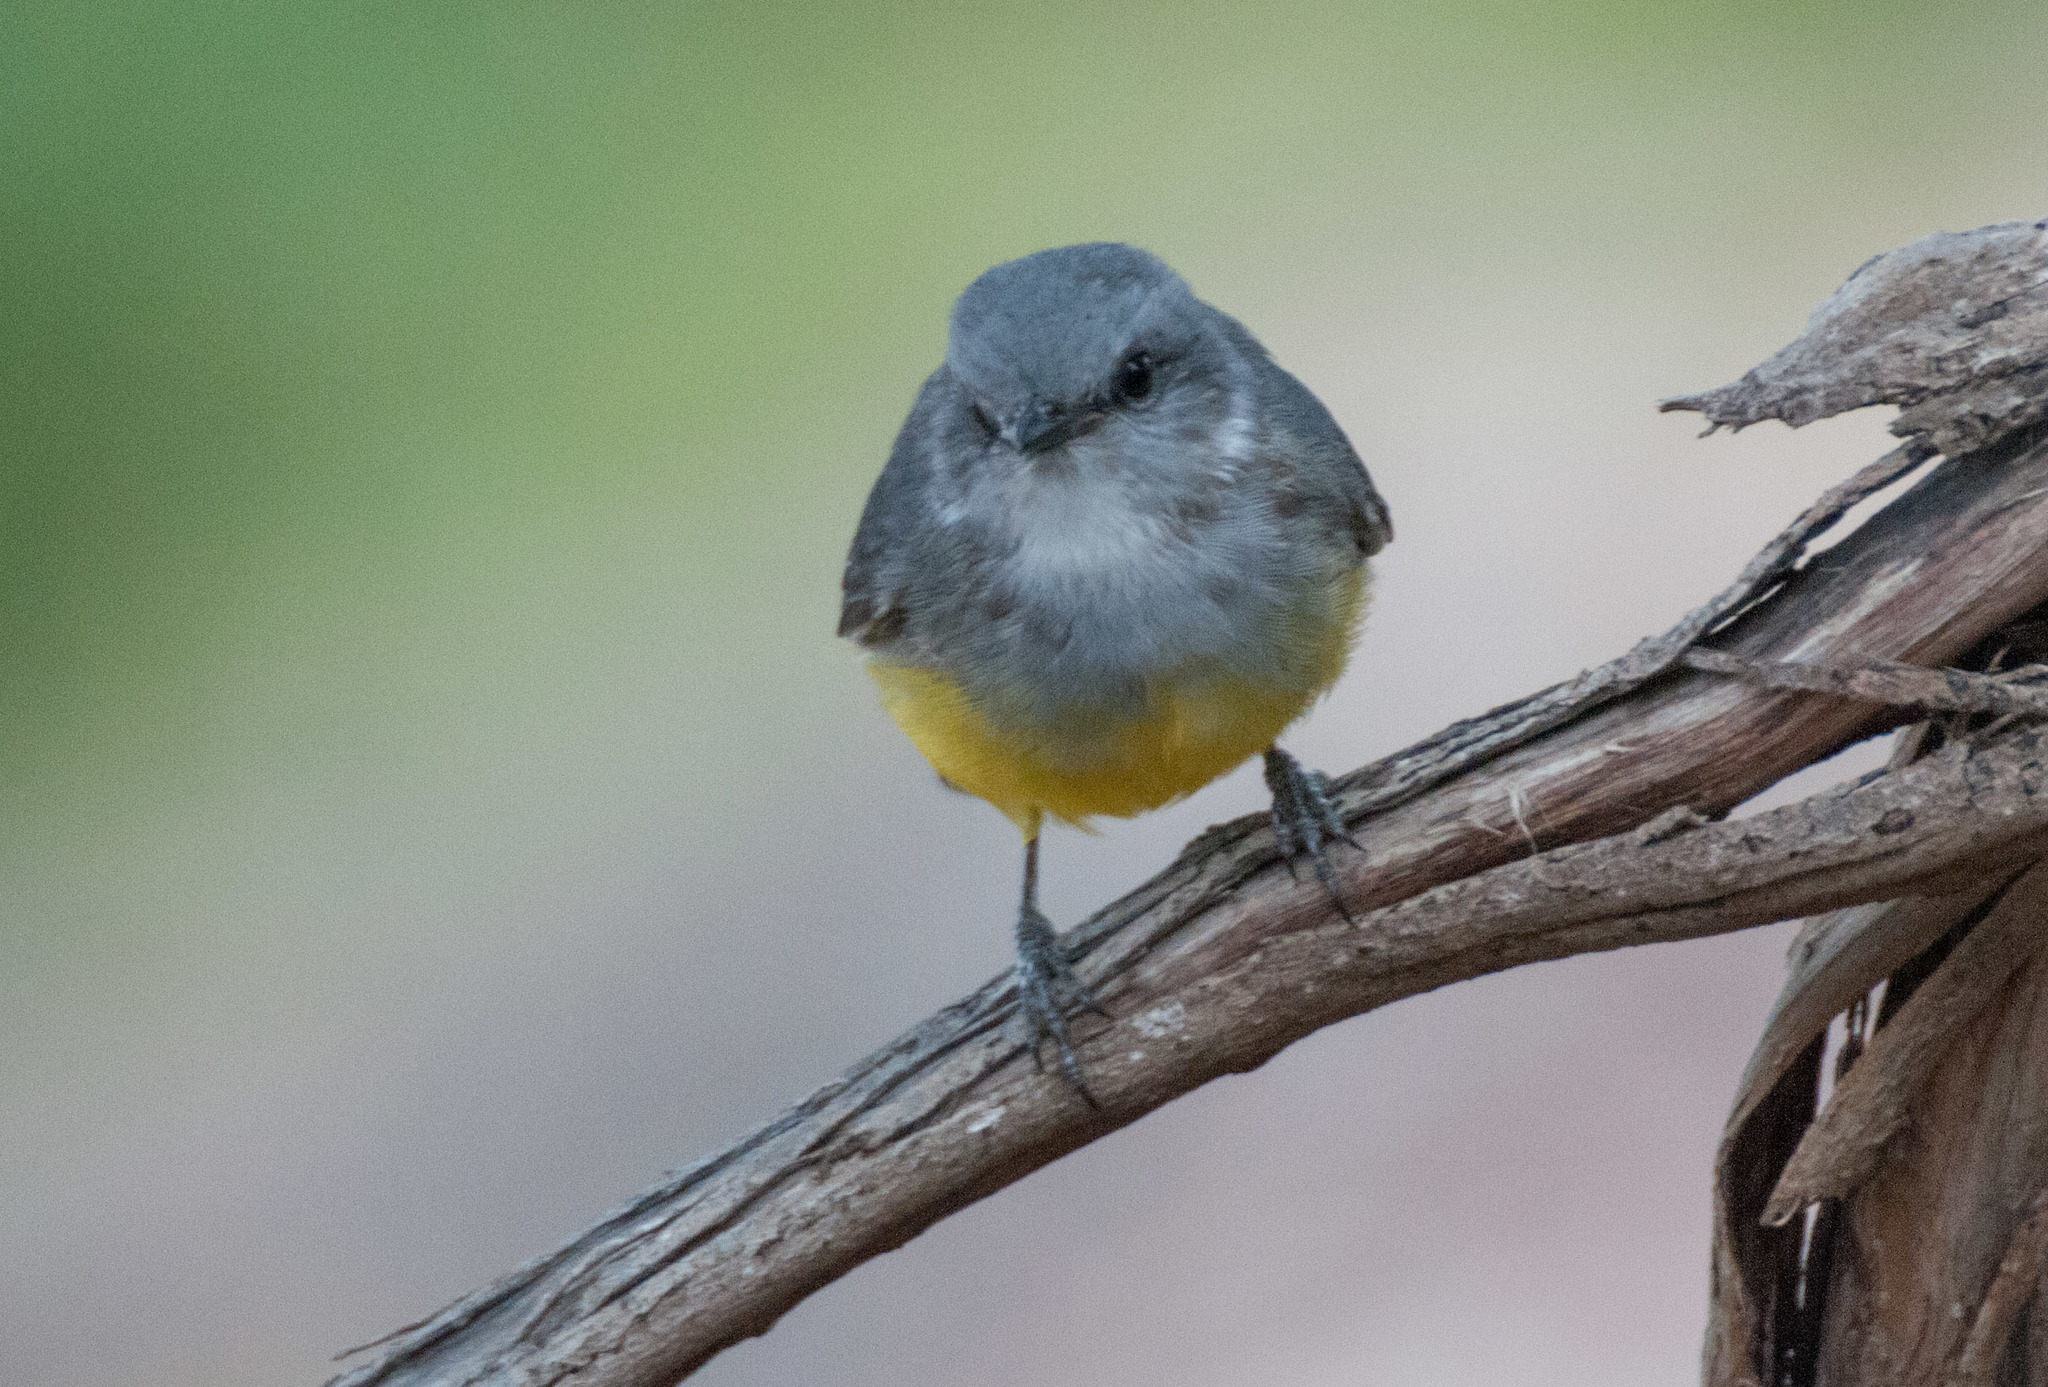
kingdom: Animalia
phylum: Chordata
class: Aves
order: Passeriformes
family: Petroicidae
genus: Eopsaltria
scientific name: Eopsaltria griseogularis
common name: Western yellow robin
